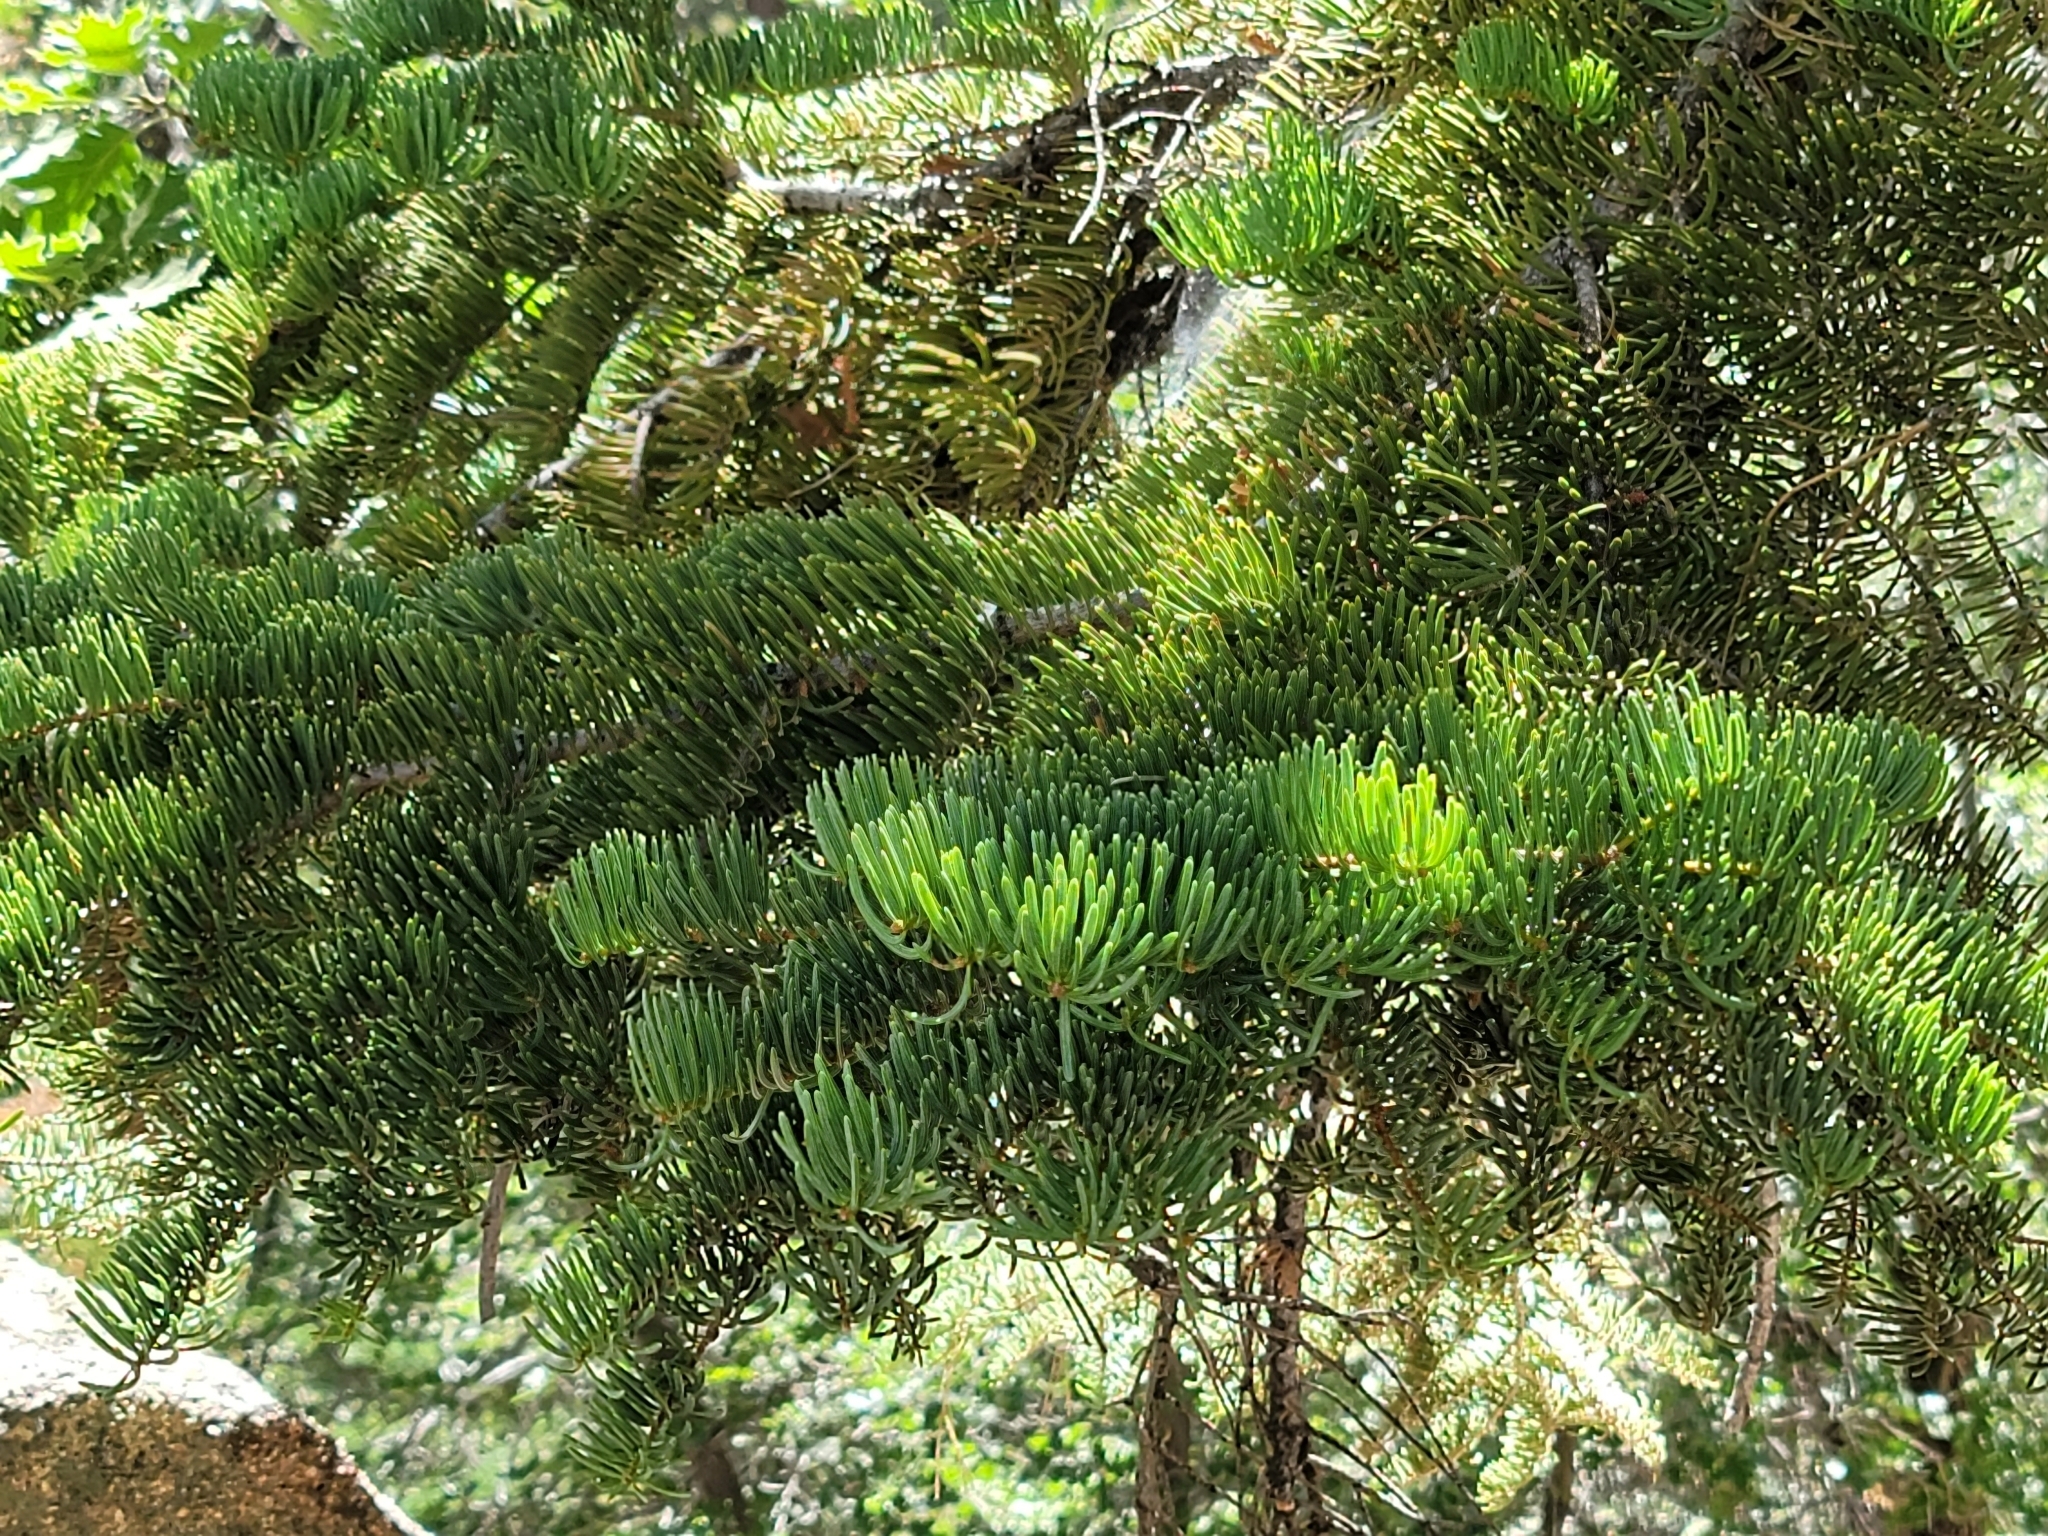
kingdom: Plantae
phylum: Tracheophyta
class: Pinopsida
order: Pinales
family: Pinaceae
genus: Abies
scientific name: Abies concolor
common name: Colorado fir
